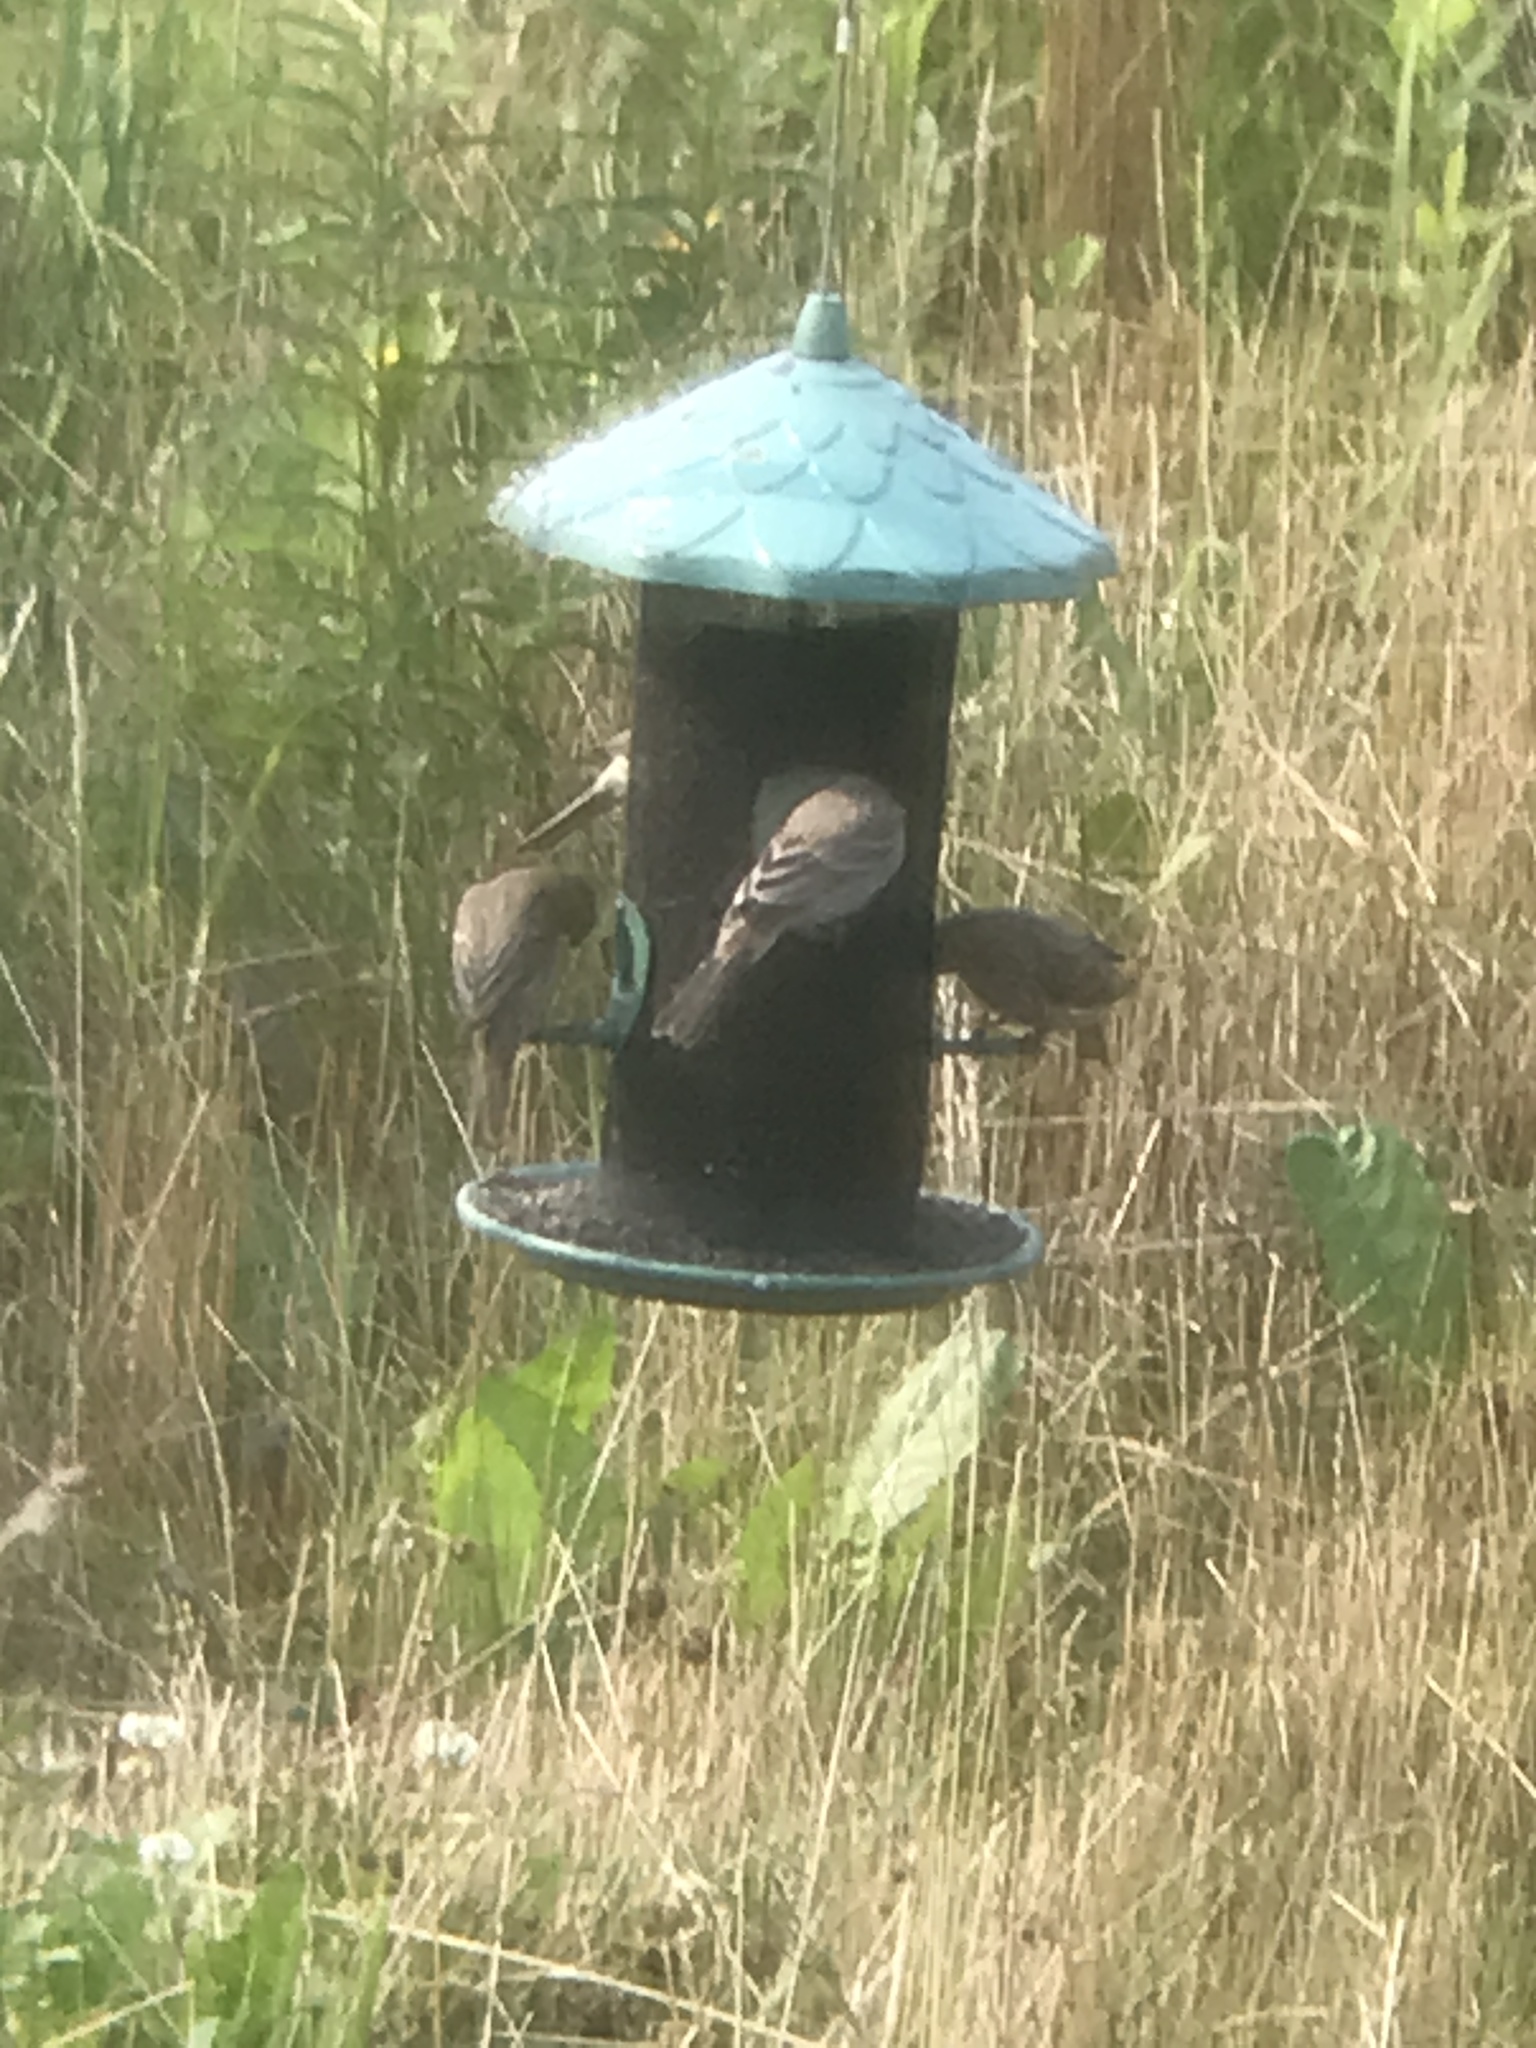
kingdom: Animalia
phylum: Chordata
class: Aves
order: Passeriformes
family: Fringillidae
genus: Haemorhous
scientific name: Haemorhous mexicanus
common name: House finch
